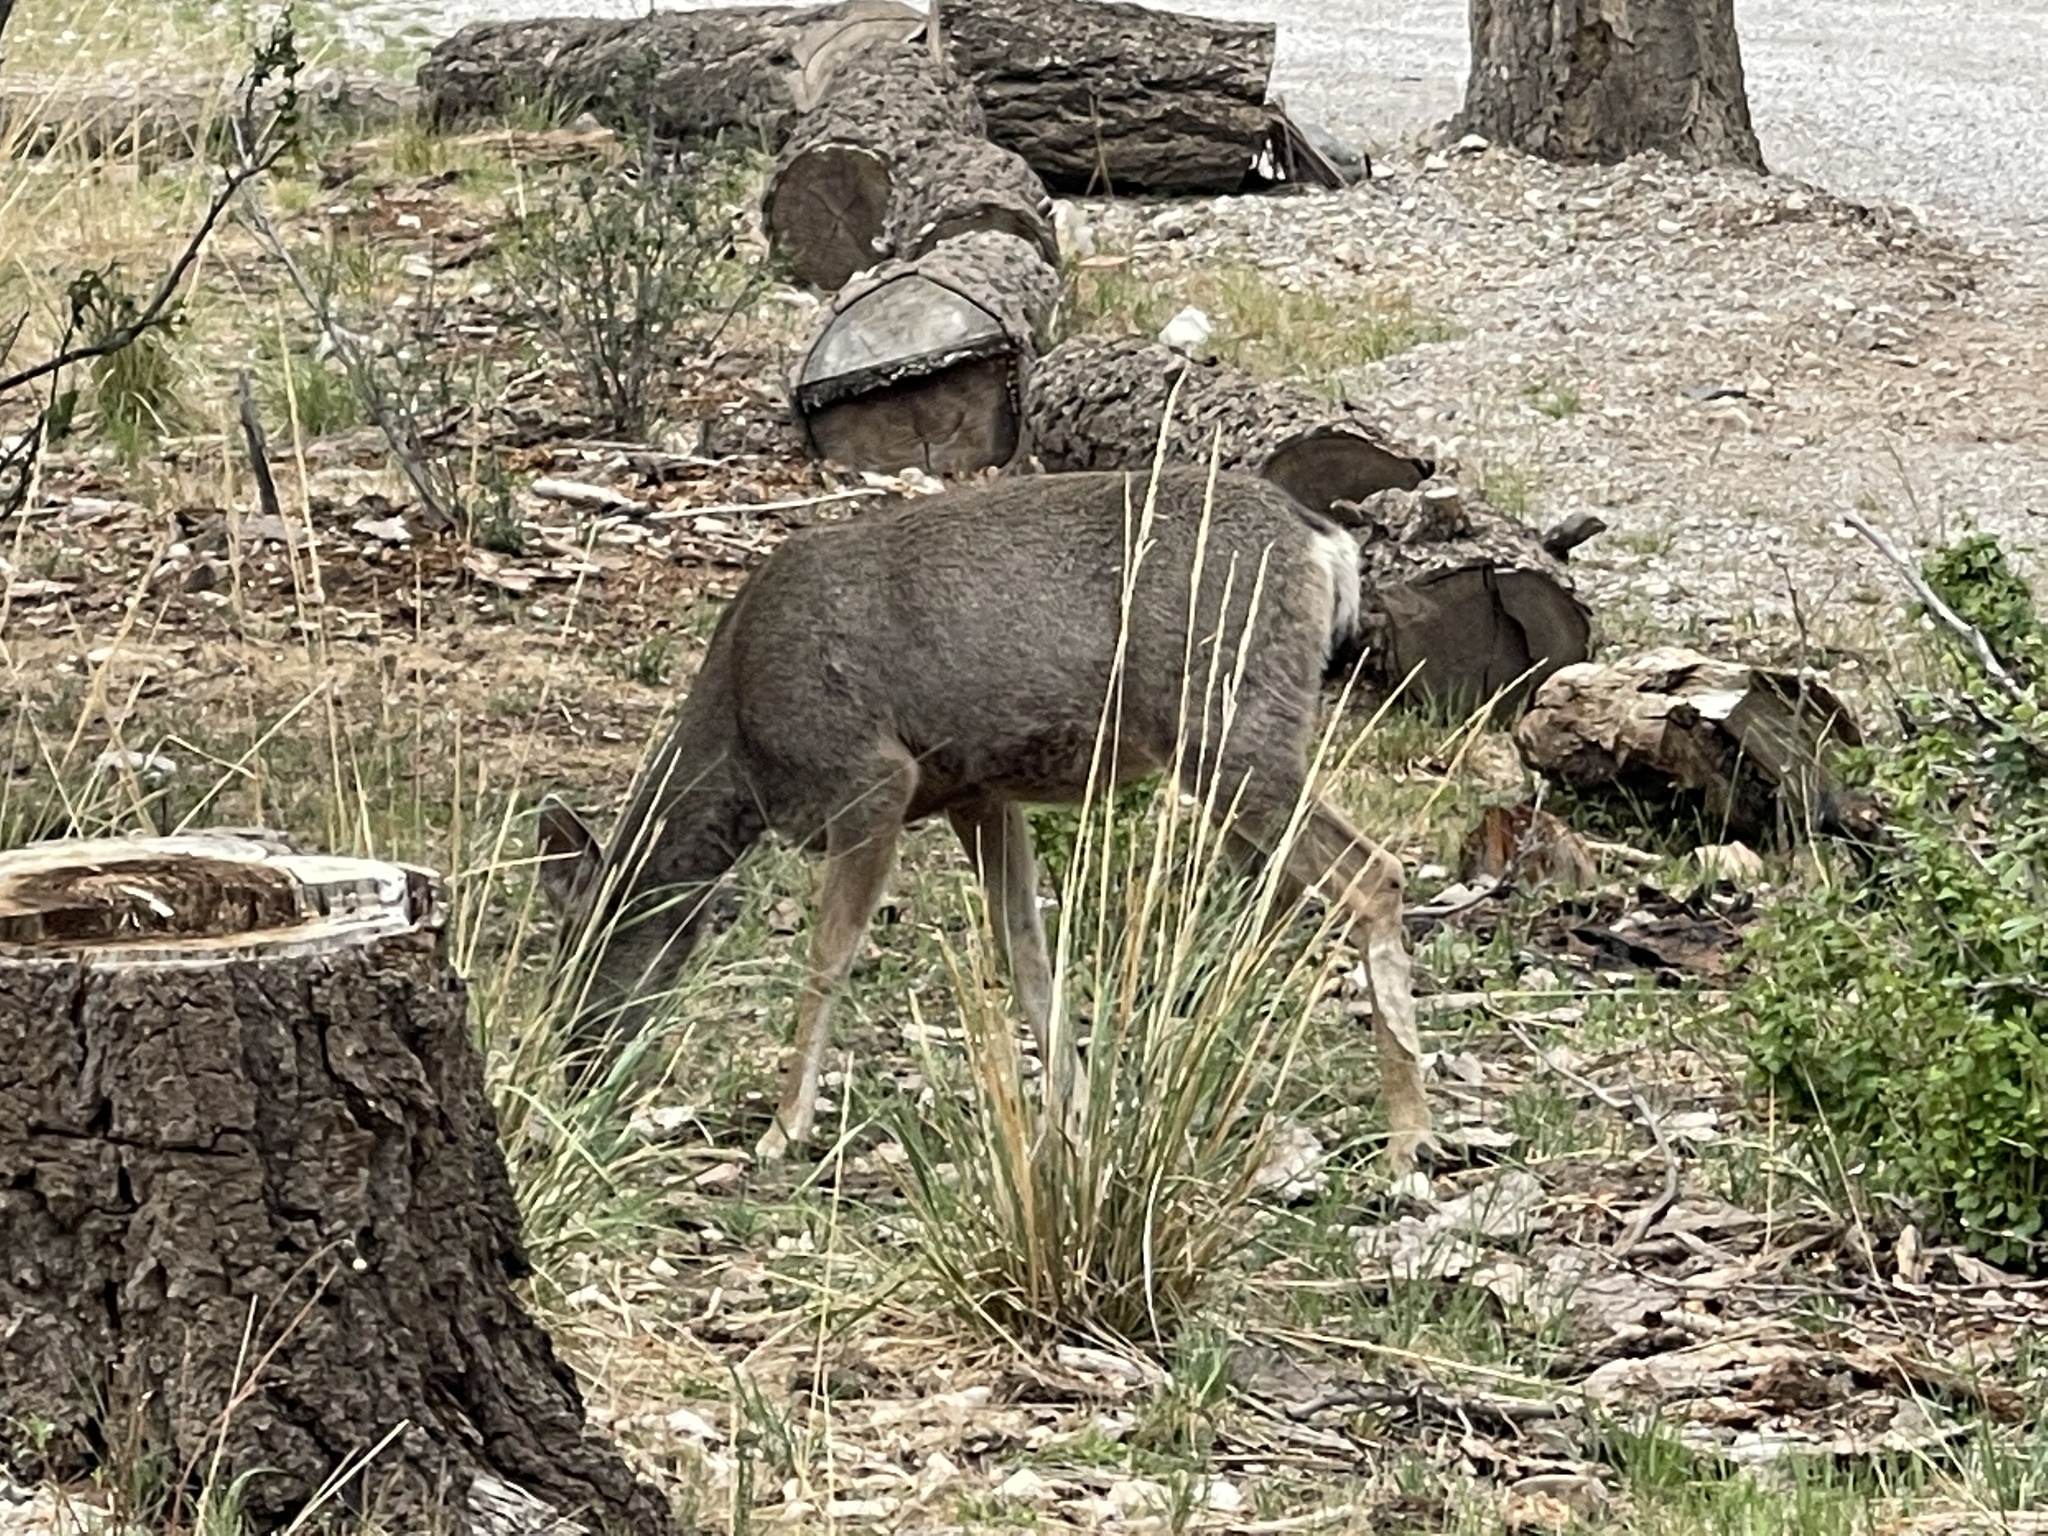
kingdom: Animalia
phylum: Chordata
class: Mammalia
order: Artiodactyla
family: Cervidae
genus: Odocoileus
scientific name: Odocoileus hemionus
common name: Mule deer
